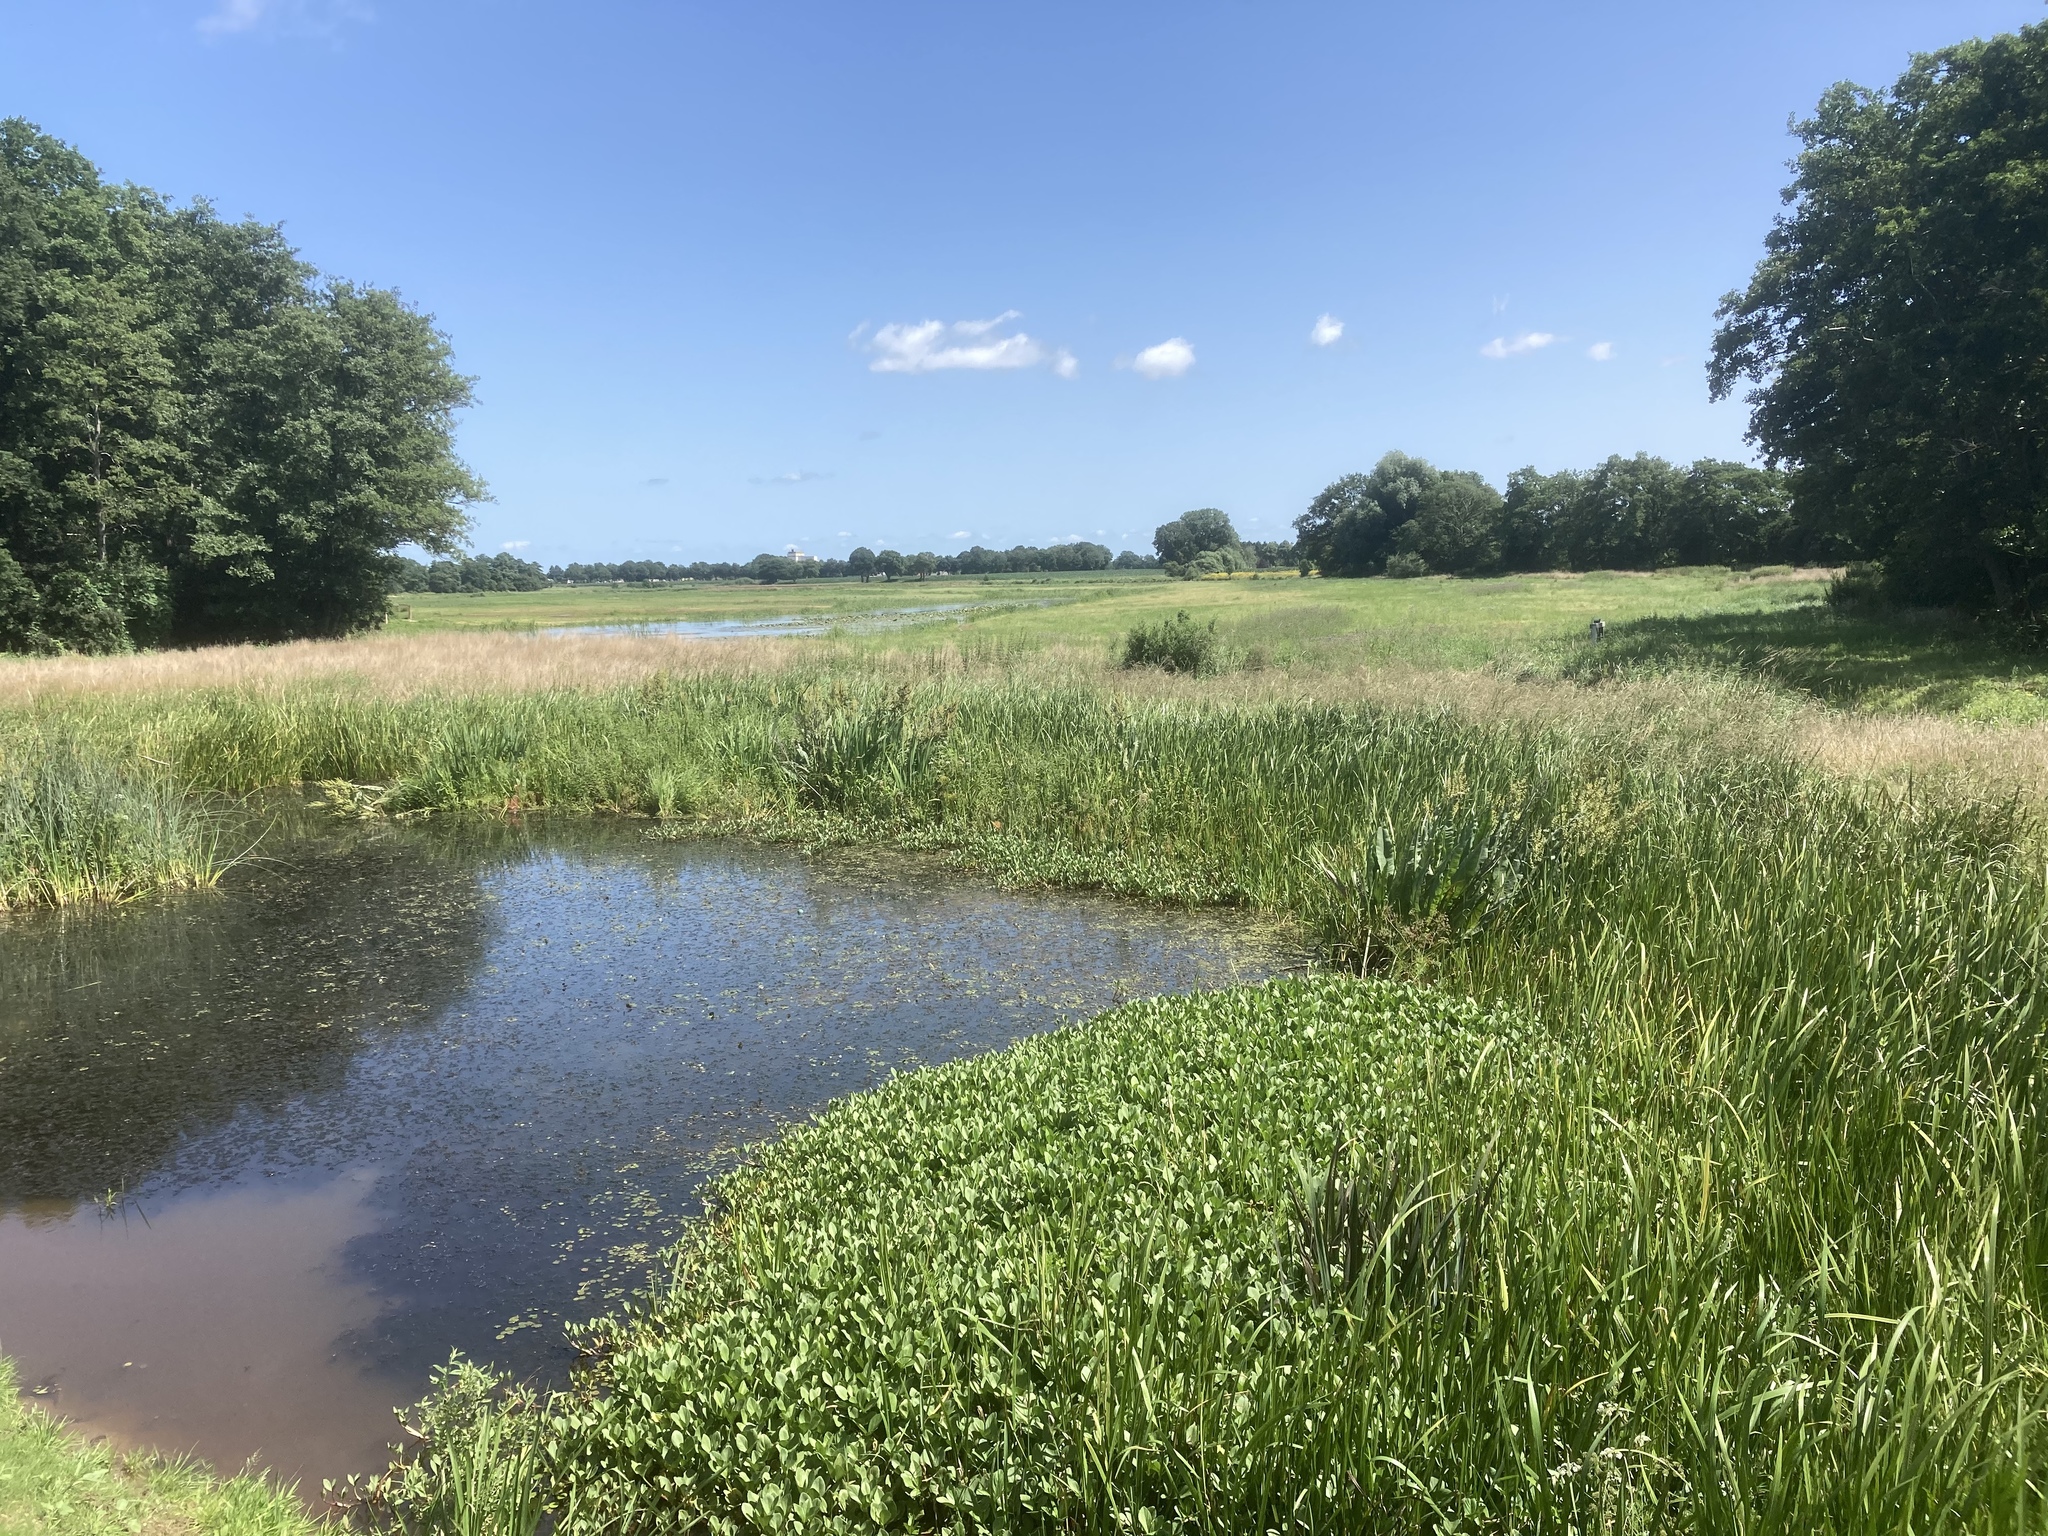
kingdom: Plantae
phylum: Tracheophyta
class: Magnoliopsida
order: Asterales
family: Menyanthaceae
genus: Menyanthes
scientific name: Menyanthes trifoliata
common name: Bogbean
